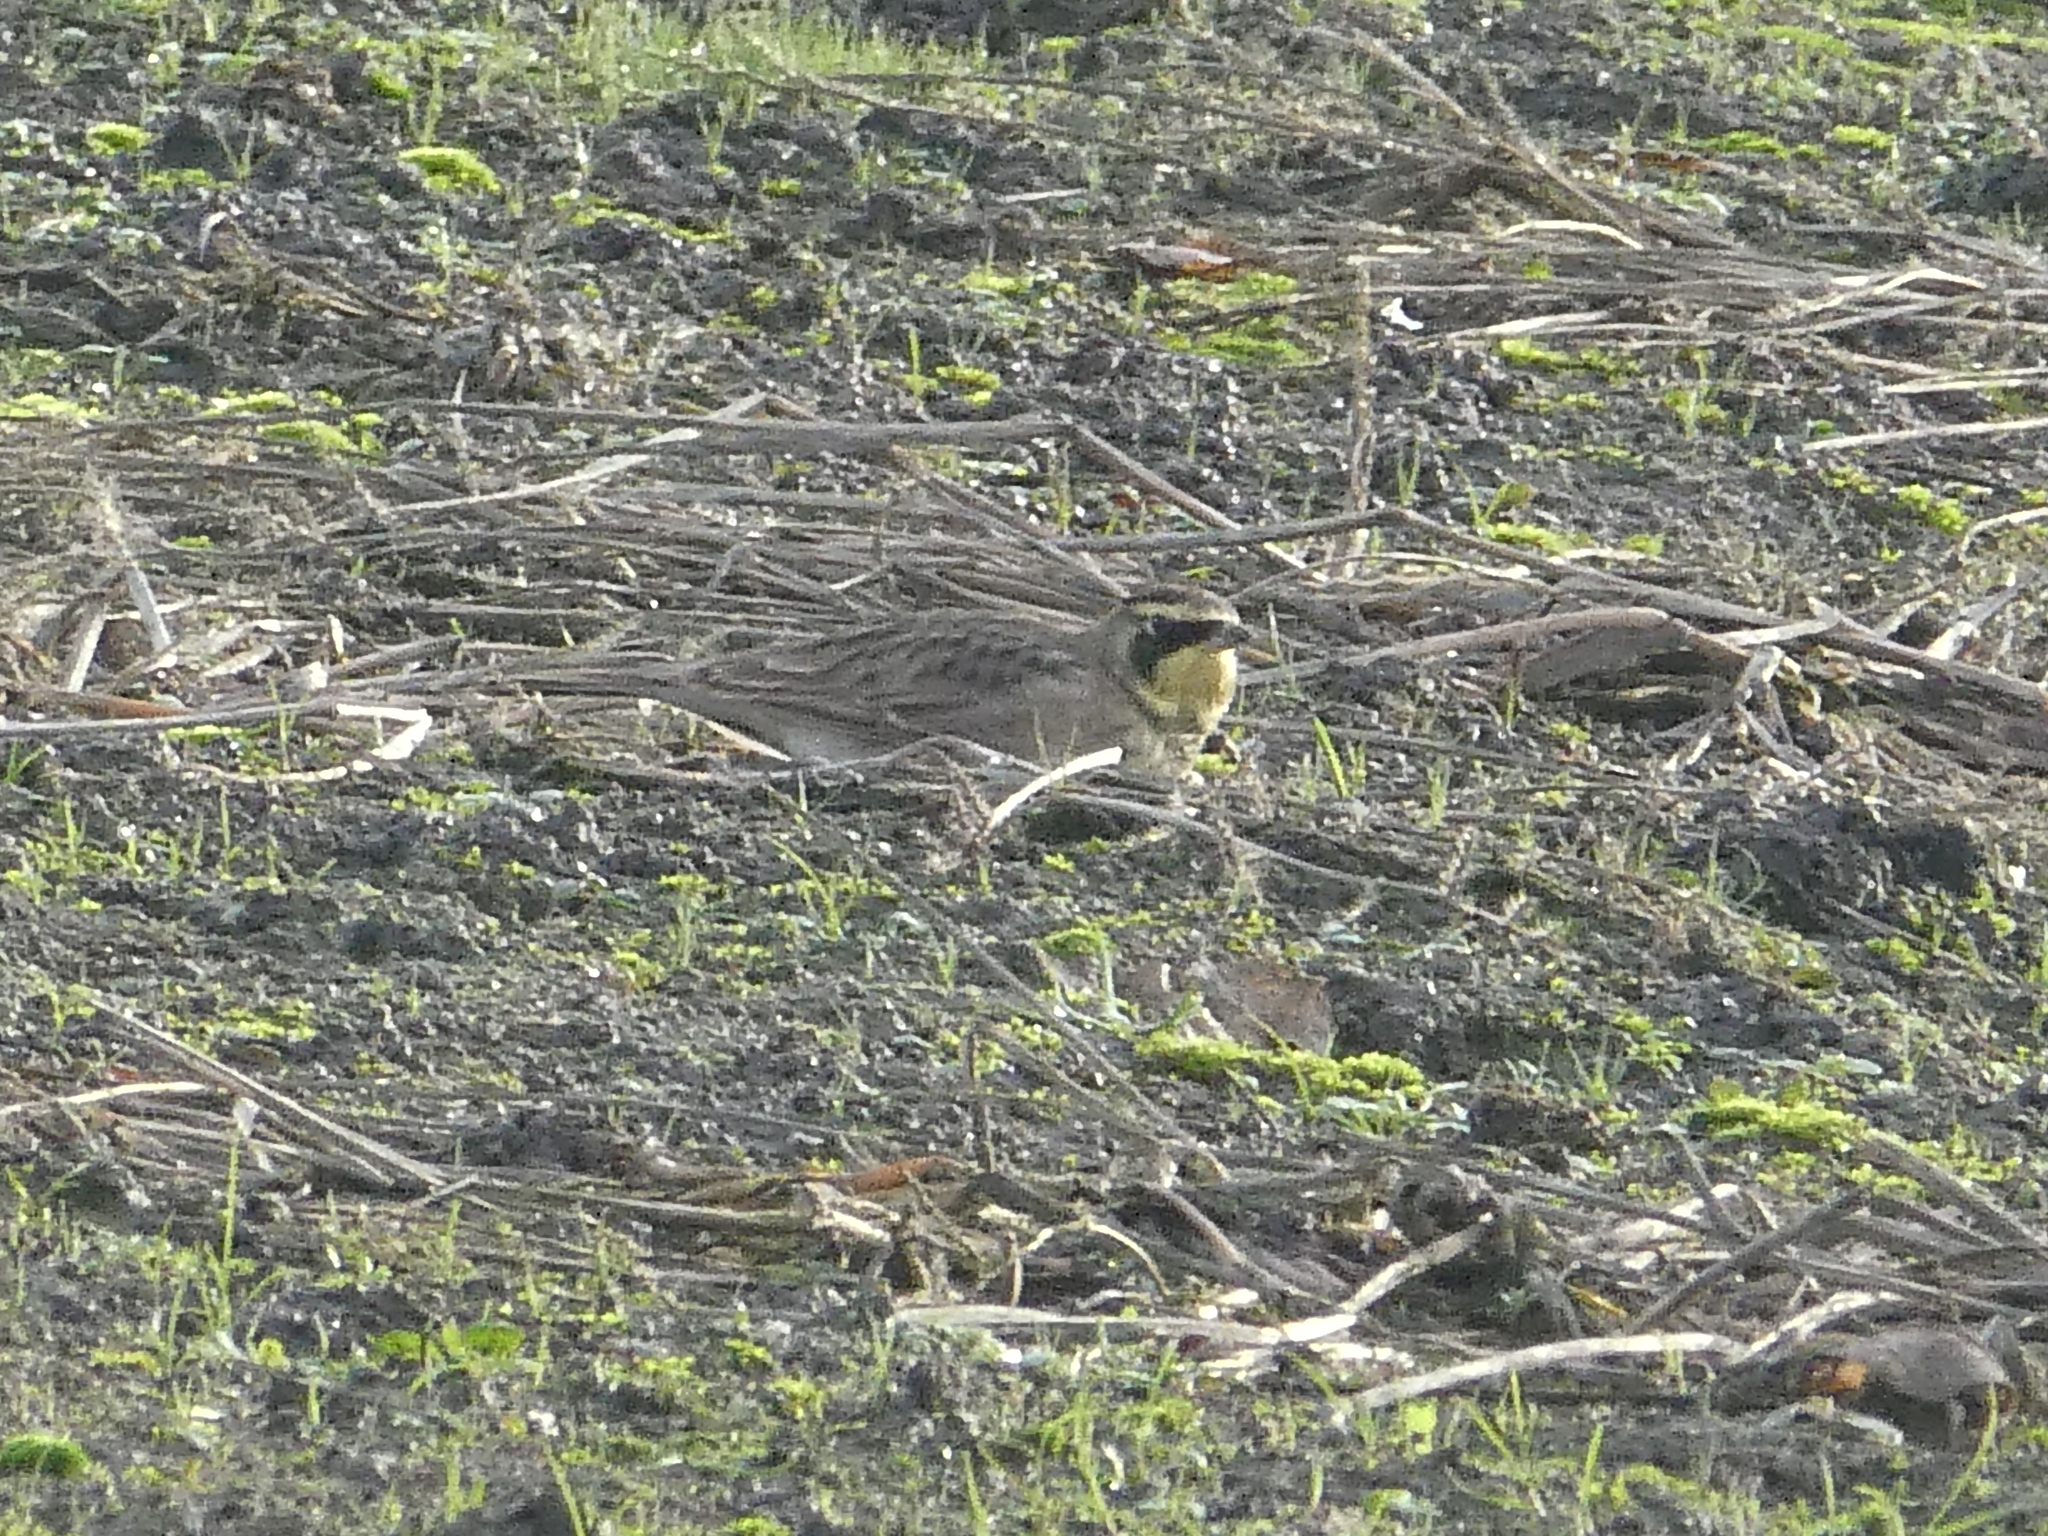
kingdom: Animalia
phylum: Chordata
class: Aves
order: Passeriformes
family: Alaudidae
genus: Eremophila
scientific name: Eremophila alpestris
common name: Horned lark
